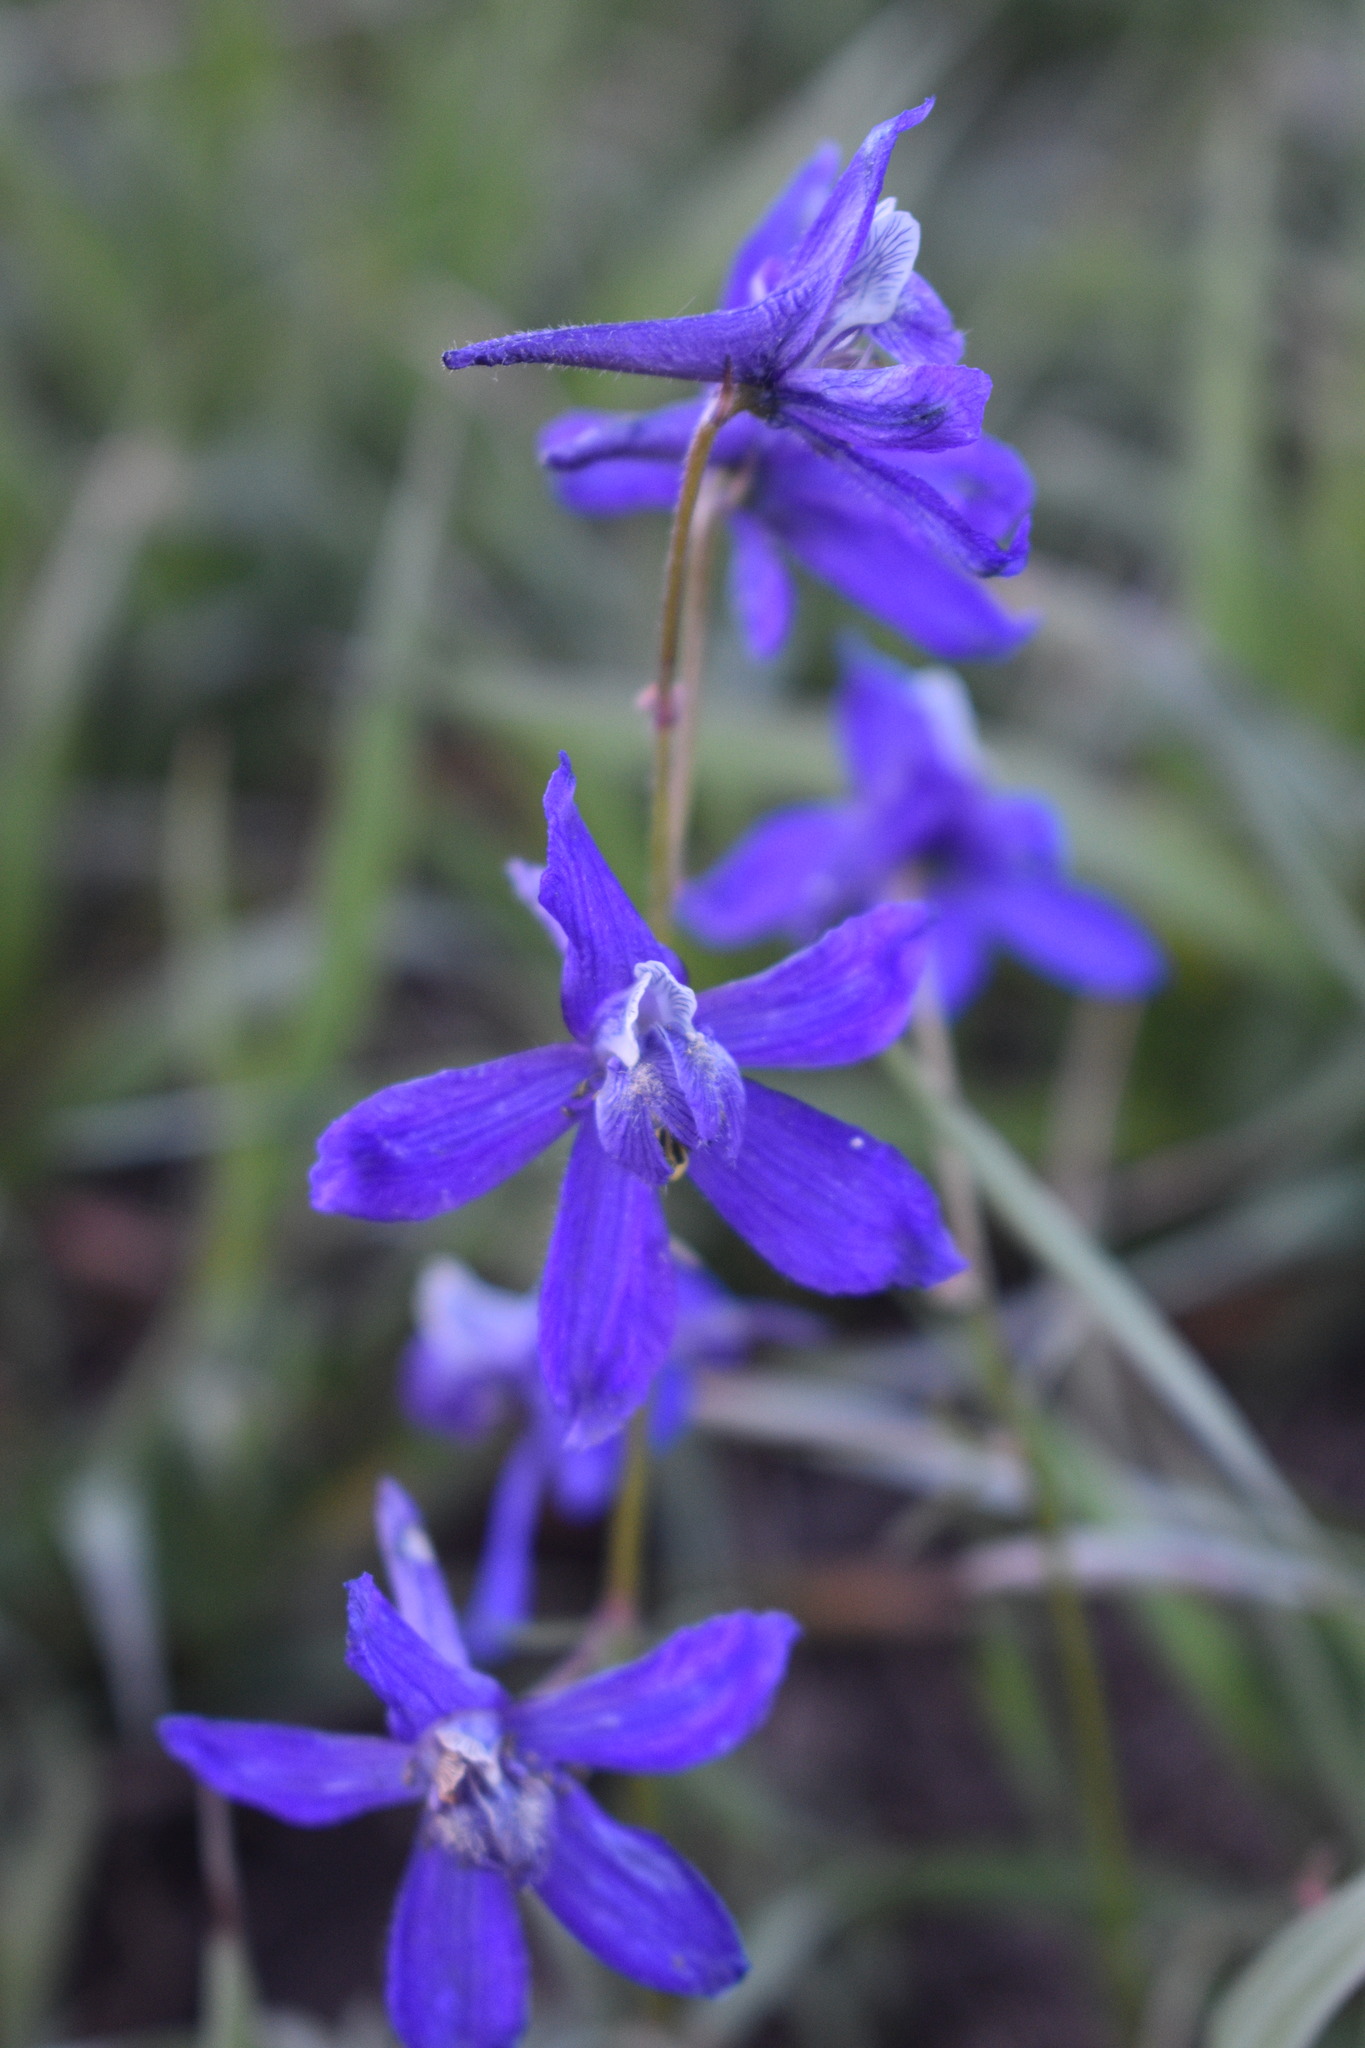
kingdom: Plantae
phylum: Tracheophyta
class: Magnoliopsida
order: Ranunculales
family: Ranunculaceae
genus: Delphinium
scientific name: Delphinium nuttallianum
